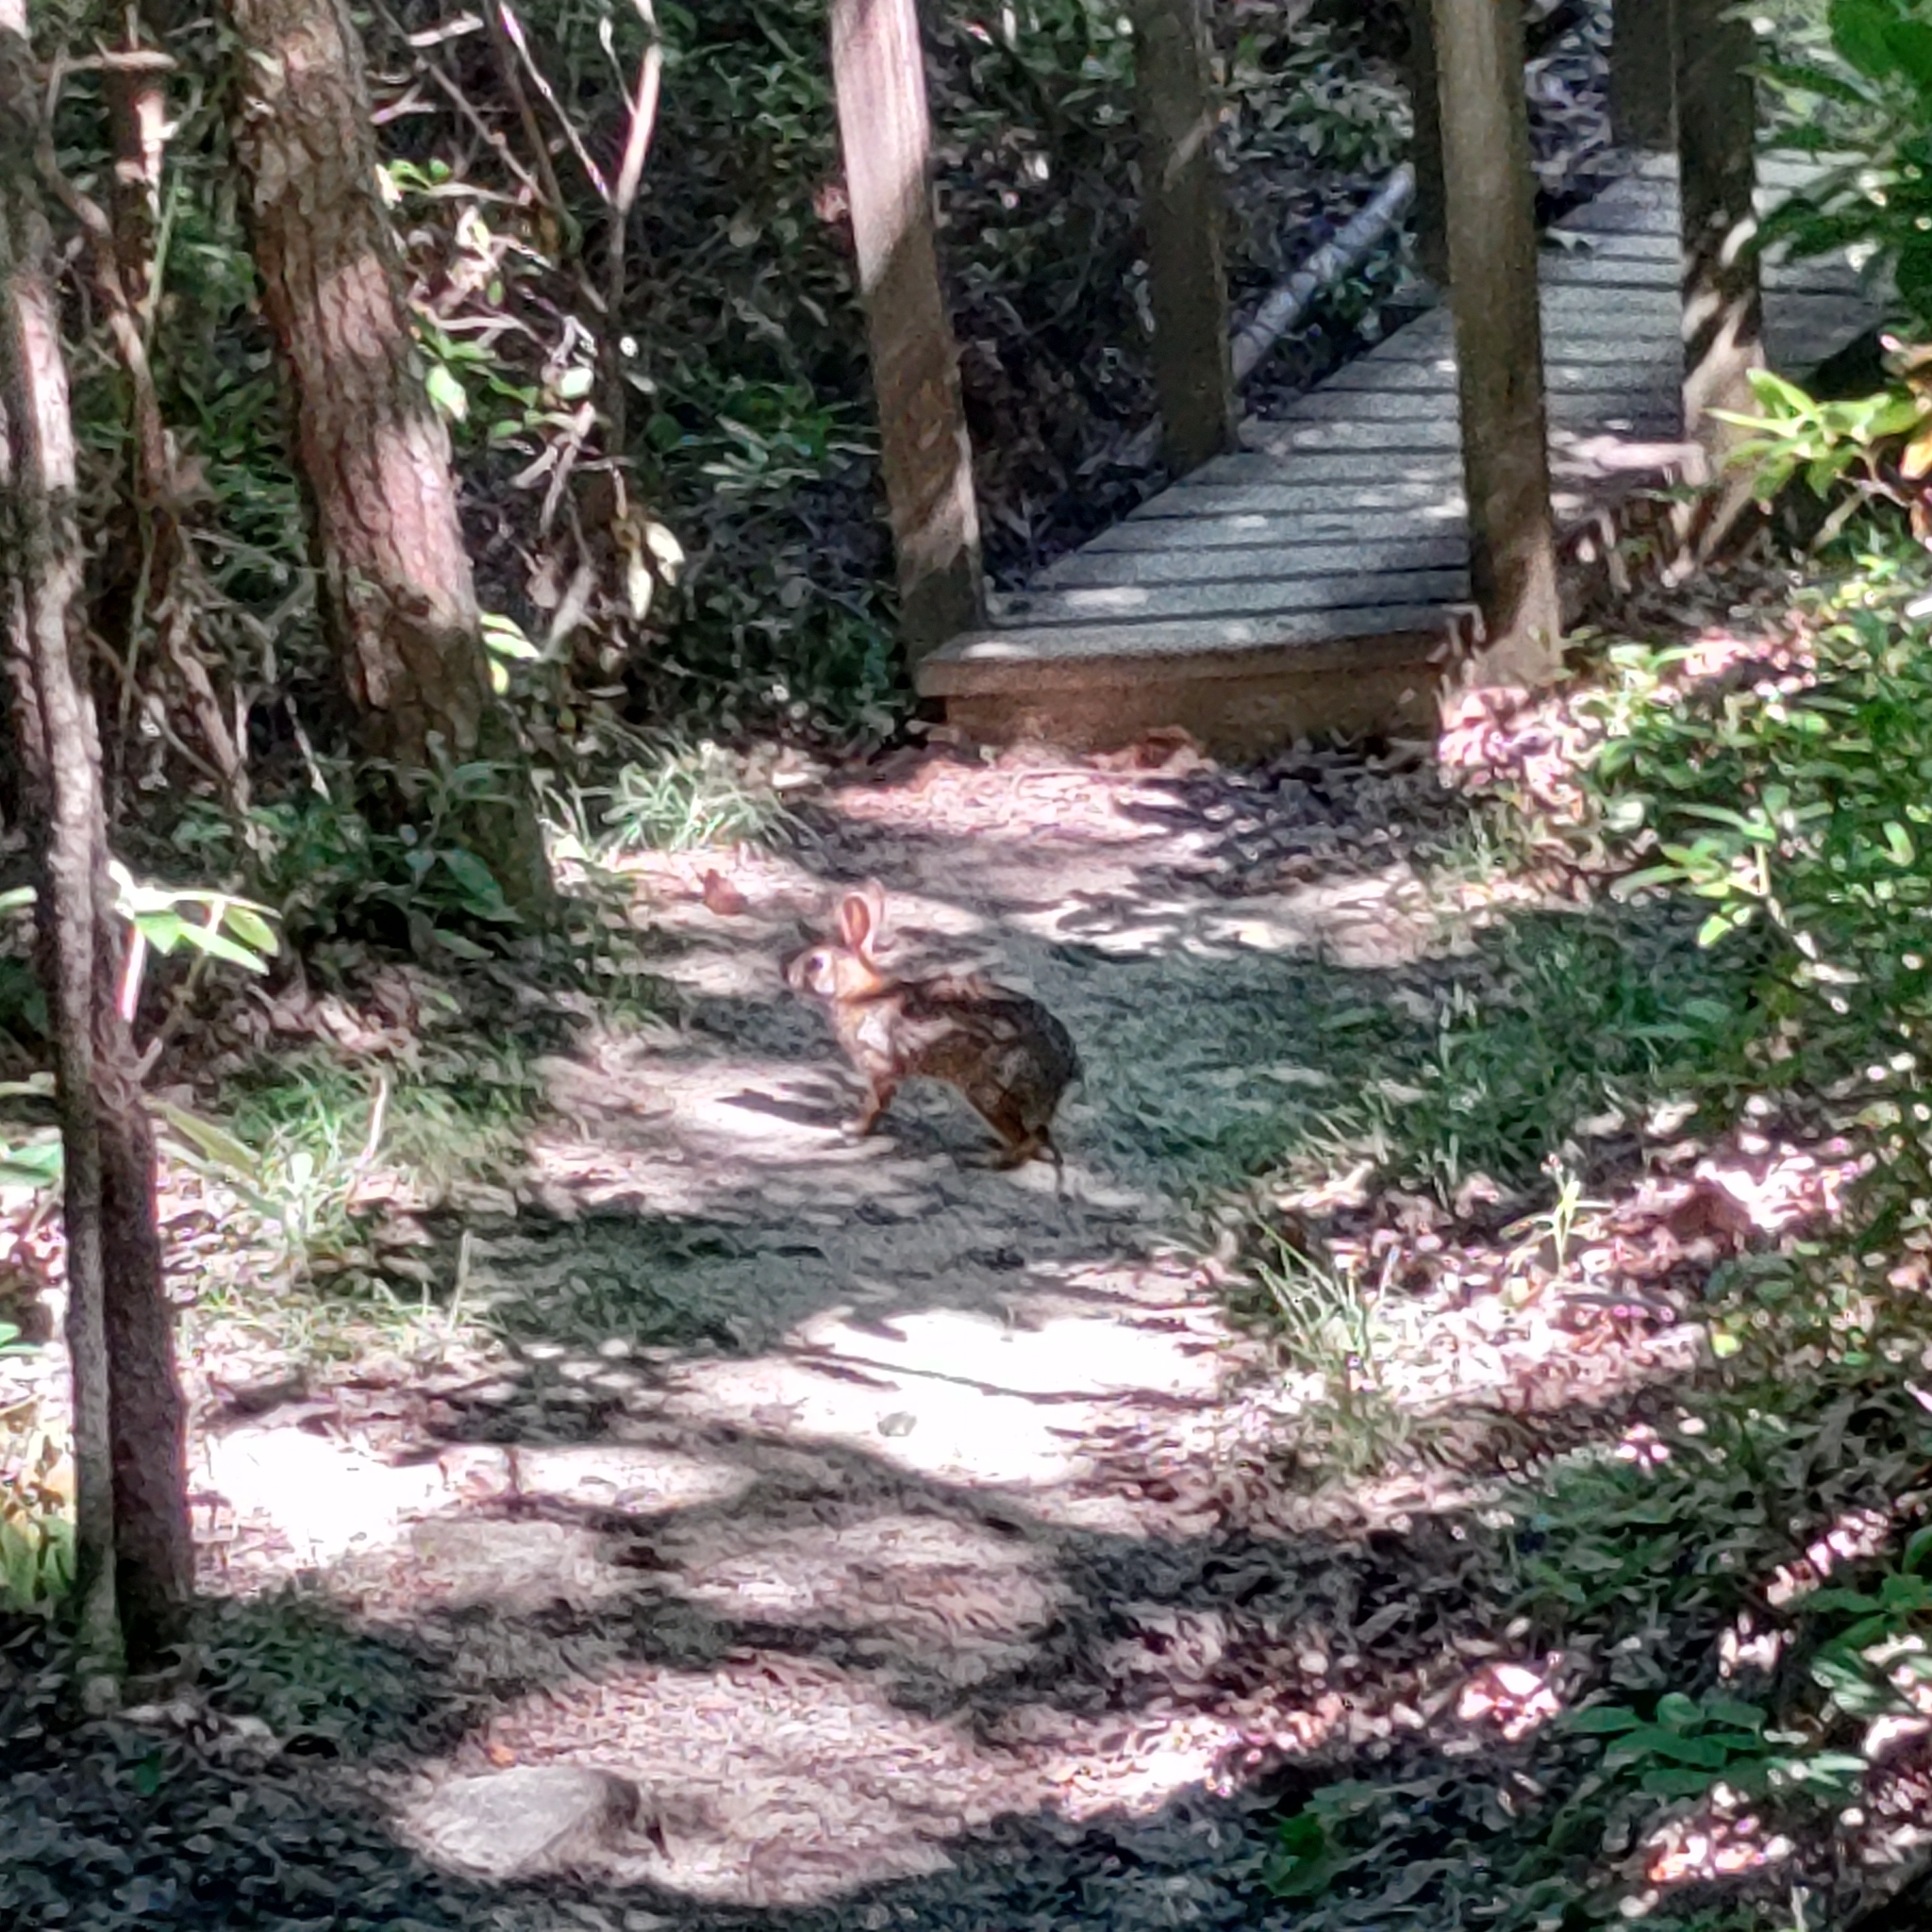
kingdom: Animalia
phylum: Chordata
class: Mammalia
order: Lagomorpha
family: Leporidae
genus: Sylvilagus
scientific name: Sylvilagus floridanus
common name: Eastern cottontail
